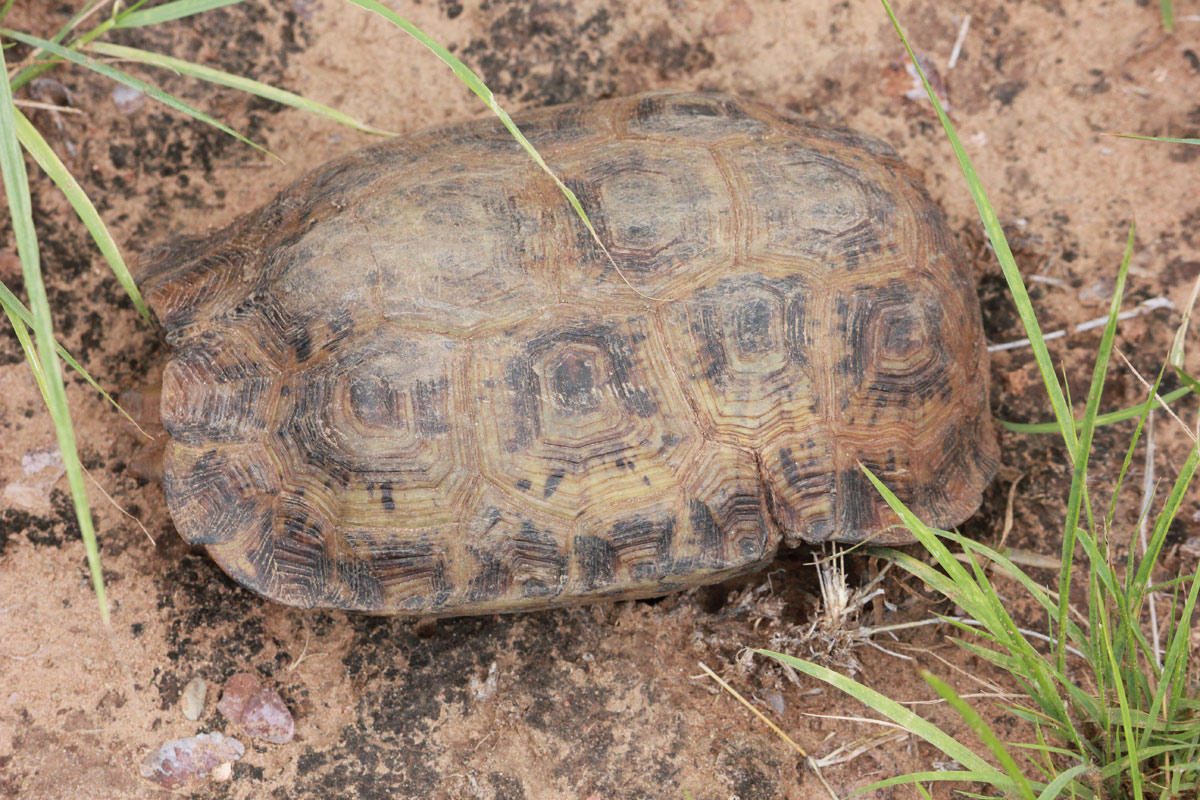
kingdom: Animalia
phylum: Chordata
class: Testudines
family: Testudinidae
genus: Kinixys
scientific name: Kinixys spekii
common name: Speke's hingeback tortoise
